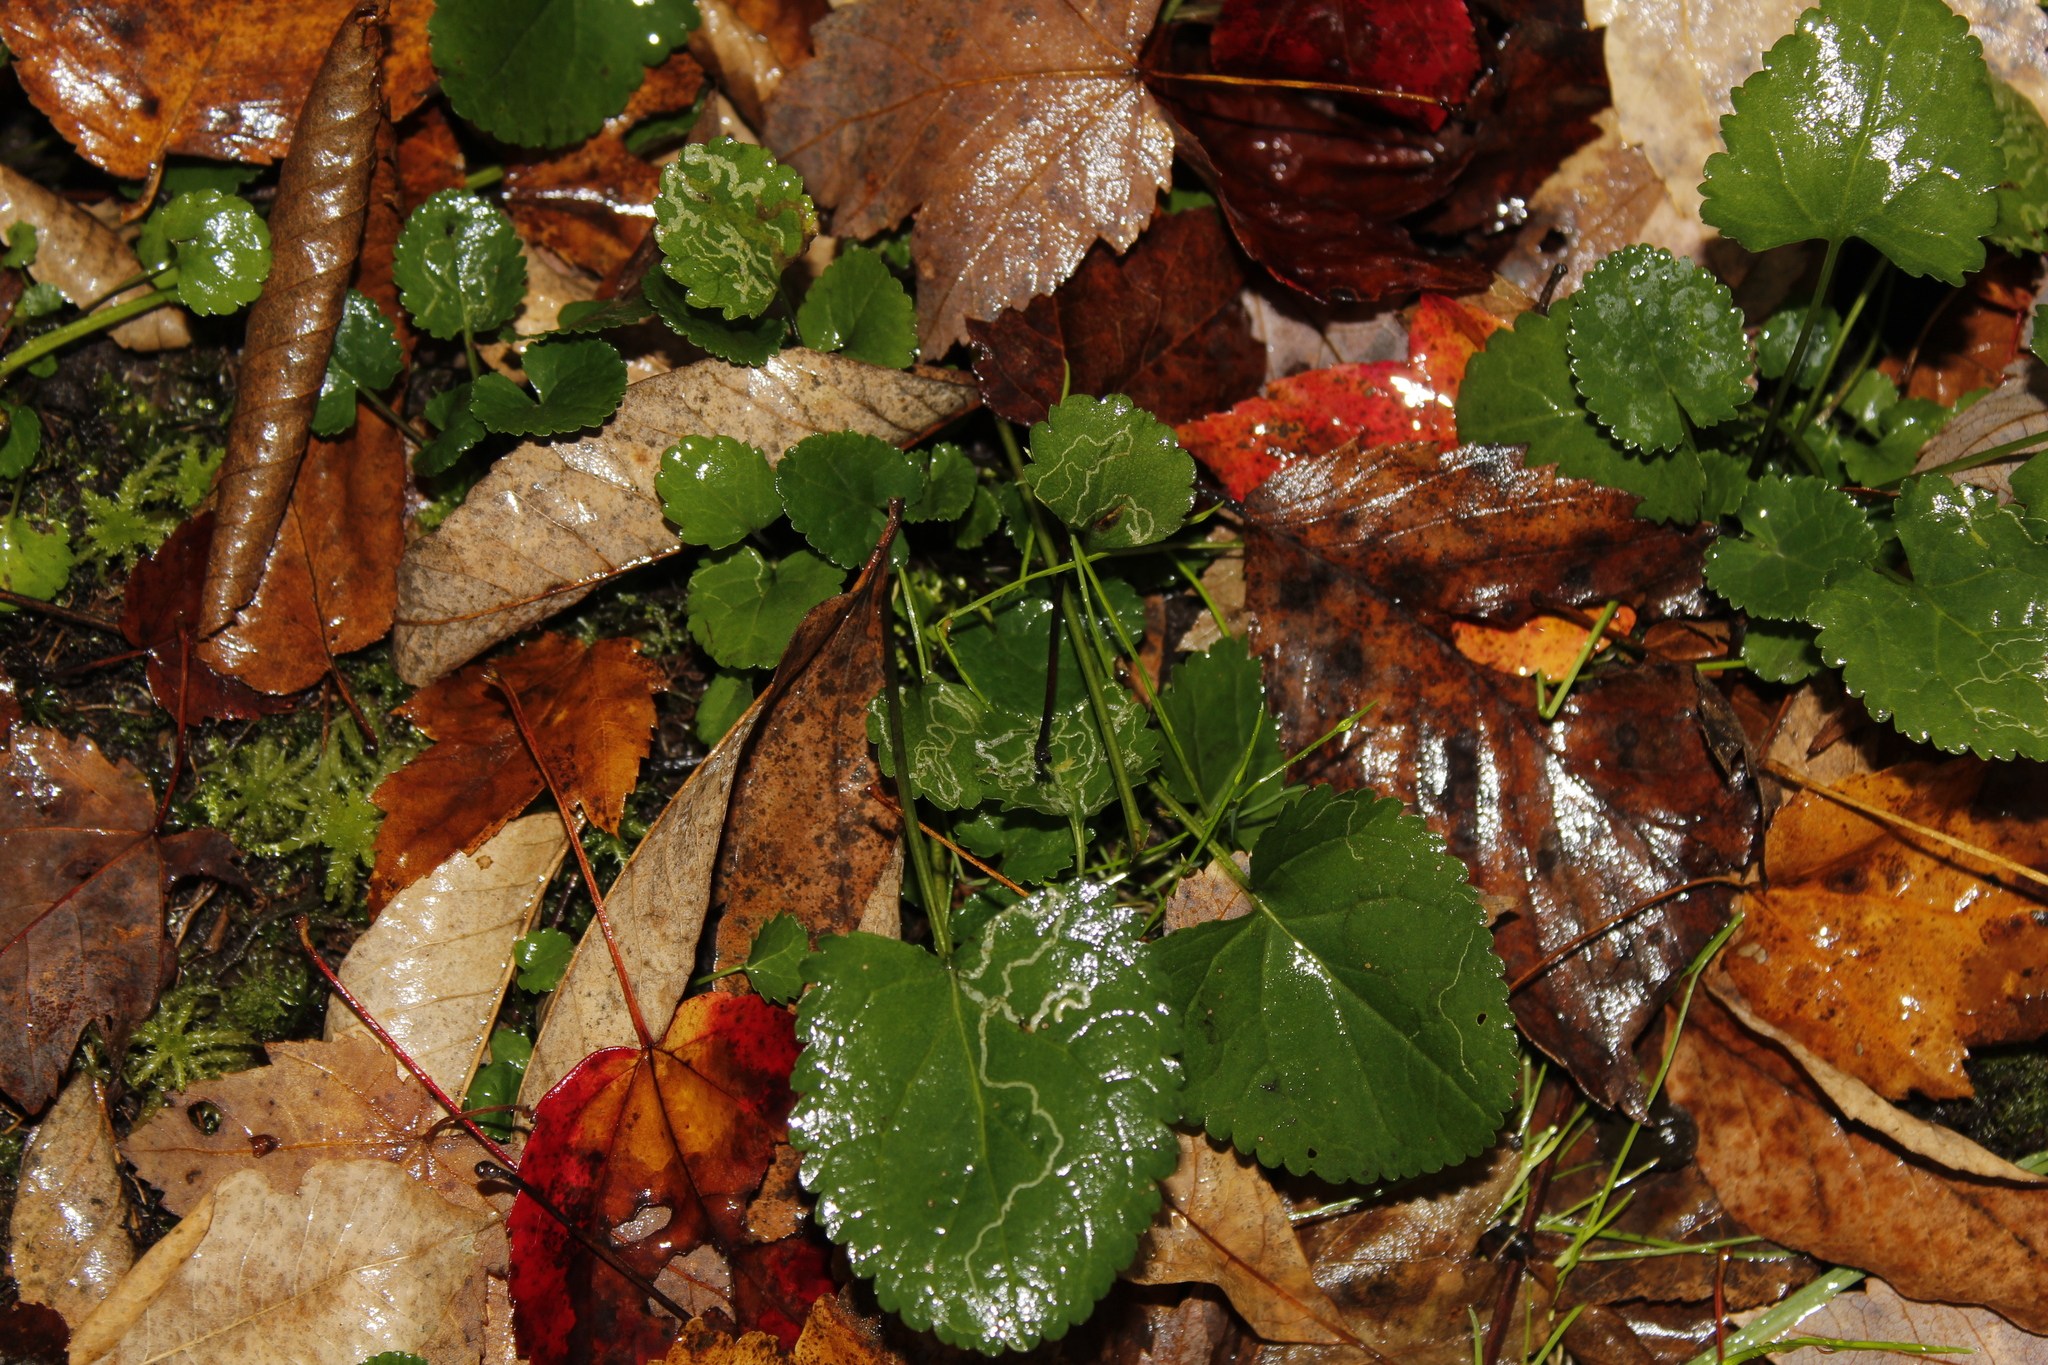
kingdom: Animalia
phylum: Arthropoda
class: Insecta
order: Lepidoptera
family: Gracillariidae
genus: Phyllocnistis
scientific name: Phyllocnistis insignis
